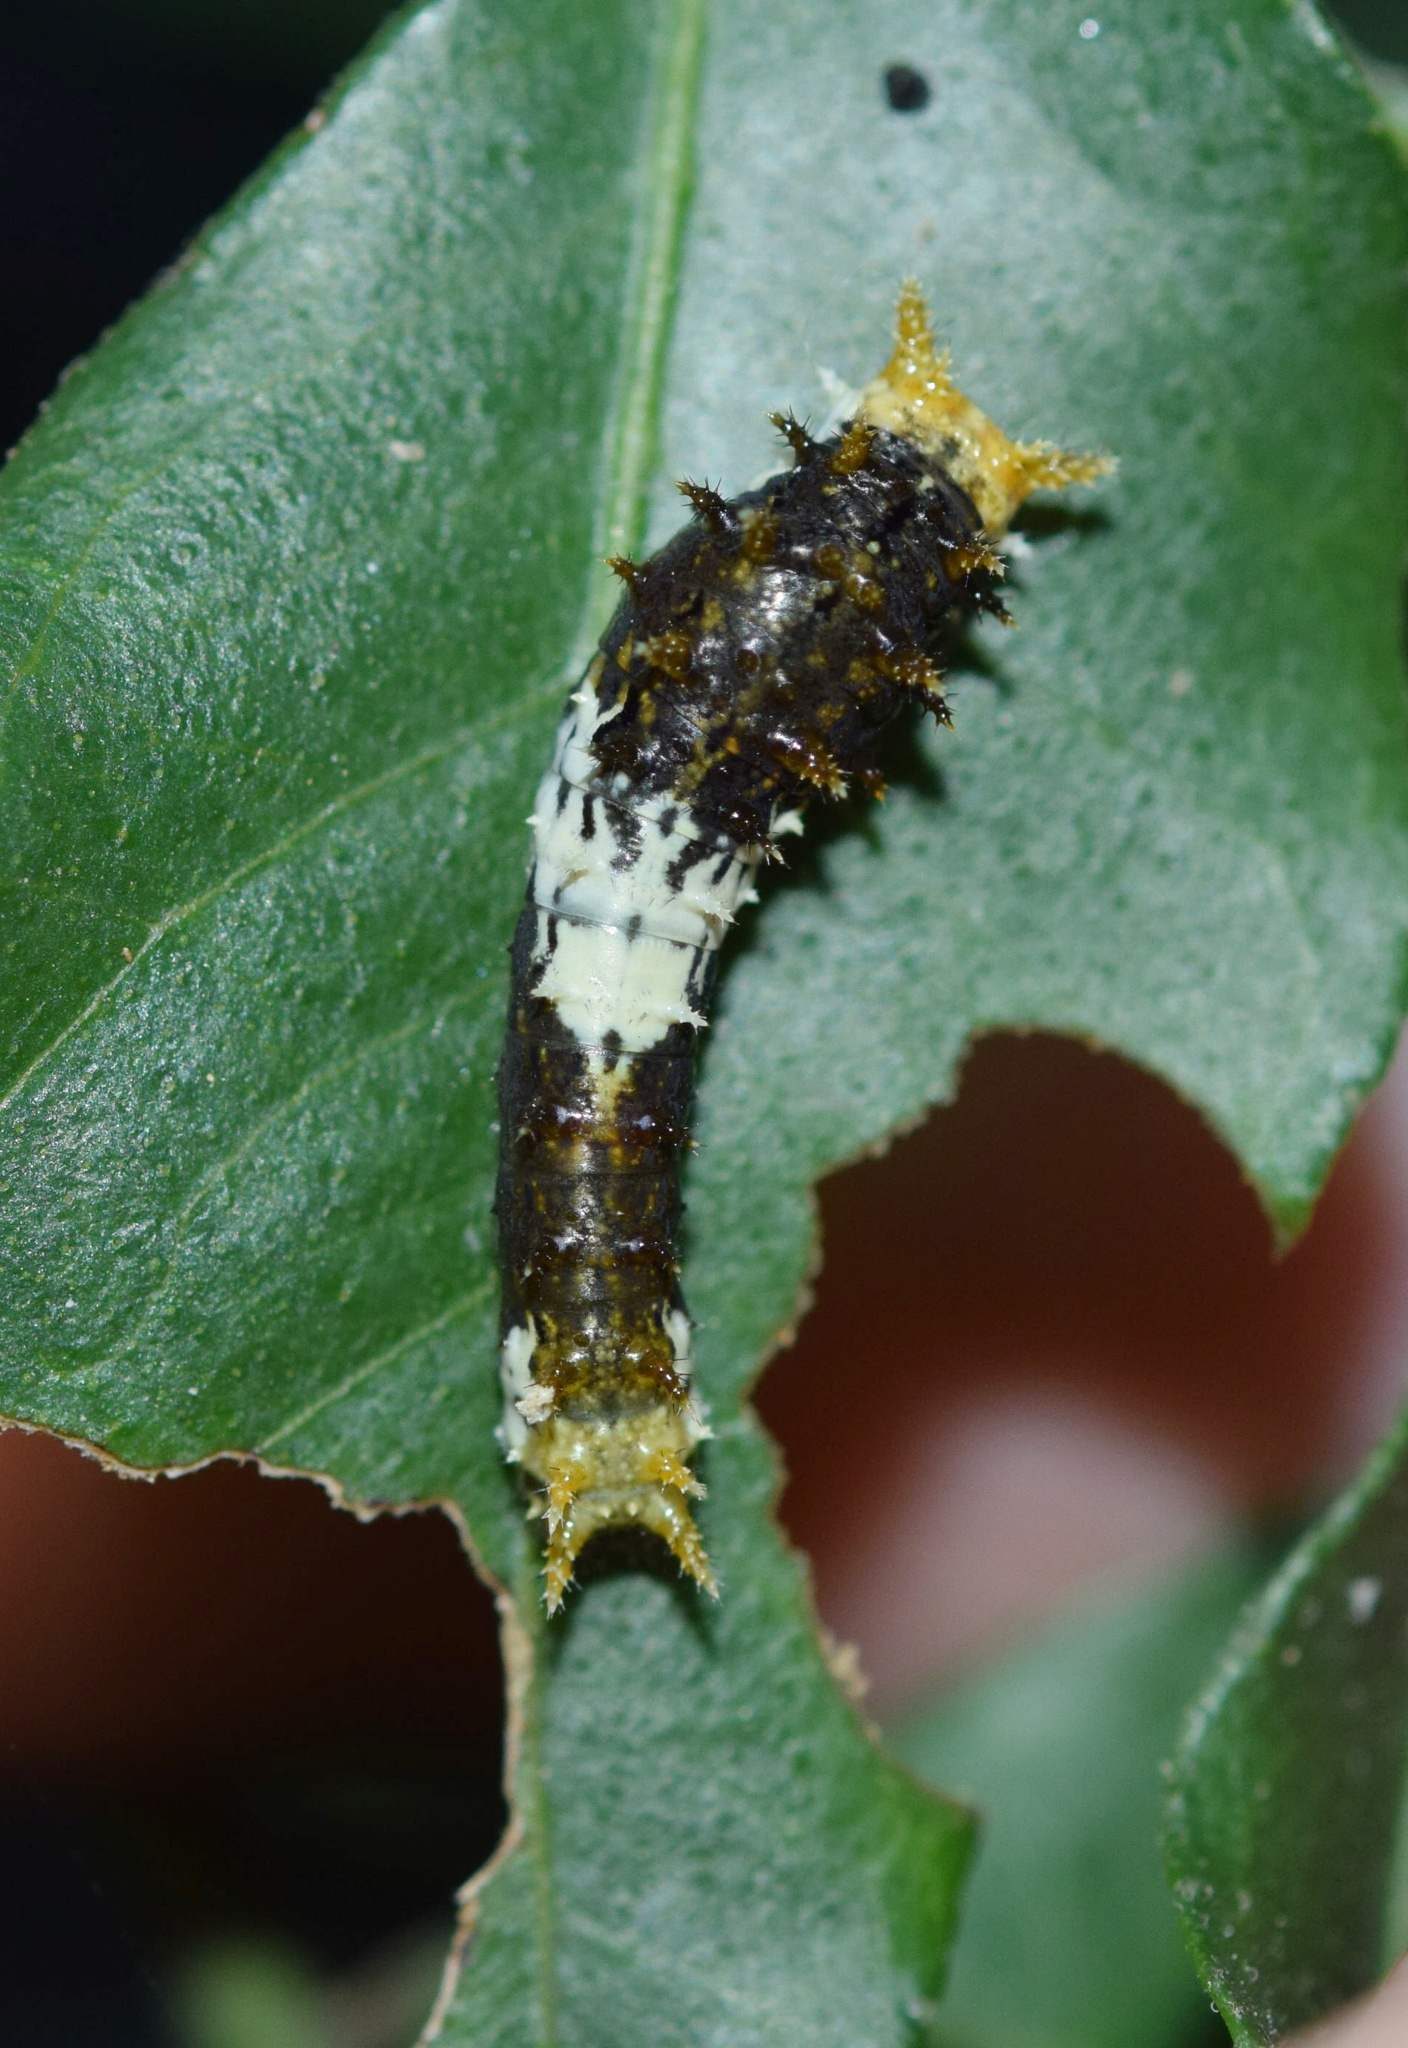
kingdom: Animalia
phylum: Arthropoda
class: Insecta
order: Lepidoptera
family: Papilionidae
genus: Papilio
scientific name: Papilio demodocus
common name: Christmas butterfly
